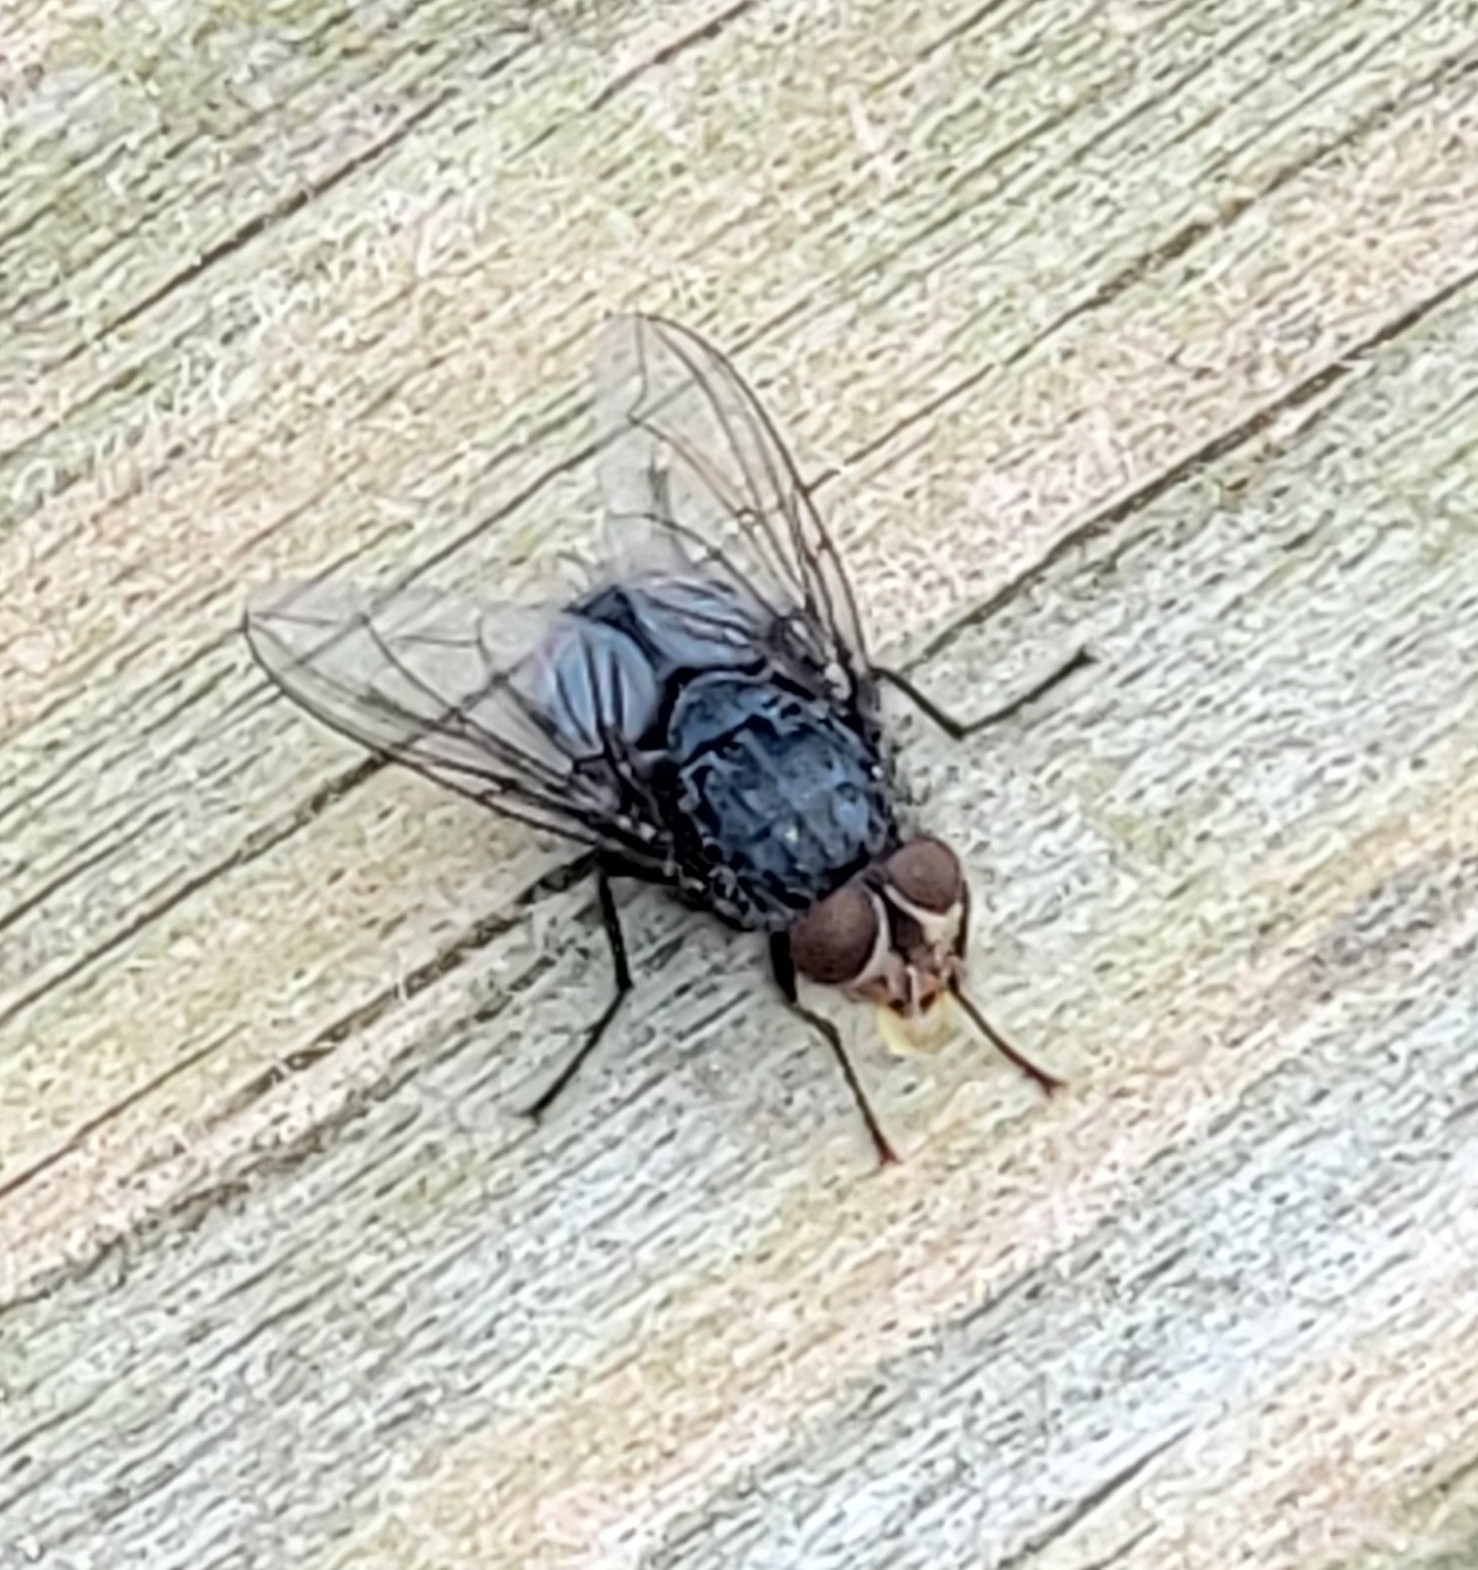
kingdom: Animalia
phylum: Arthropoda
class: Insecta
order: Diptera
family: Calliphoridae
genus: Calliphora
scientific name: Calliphora vicina
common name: Common blow flie
